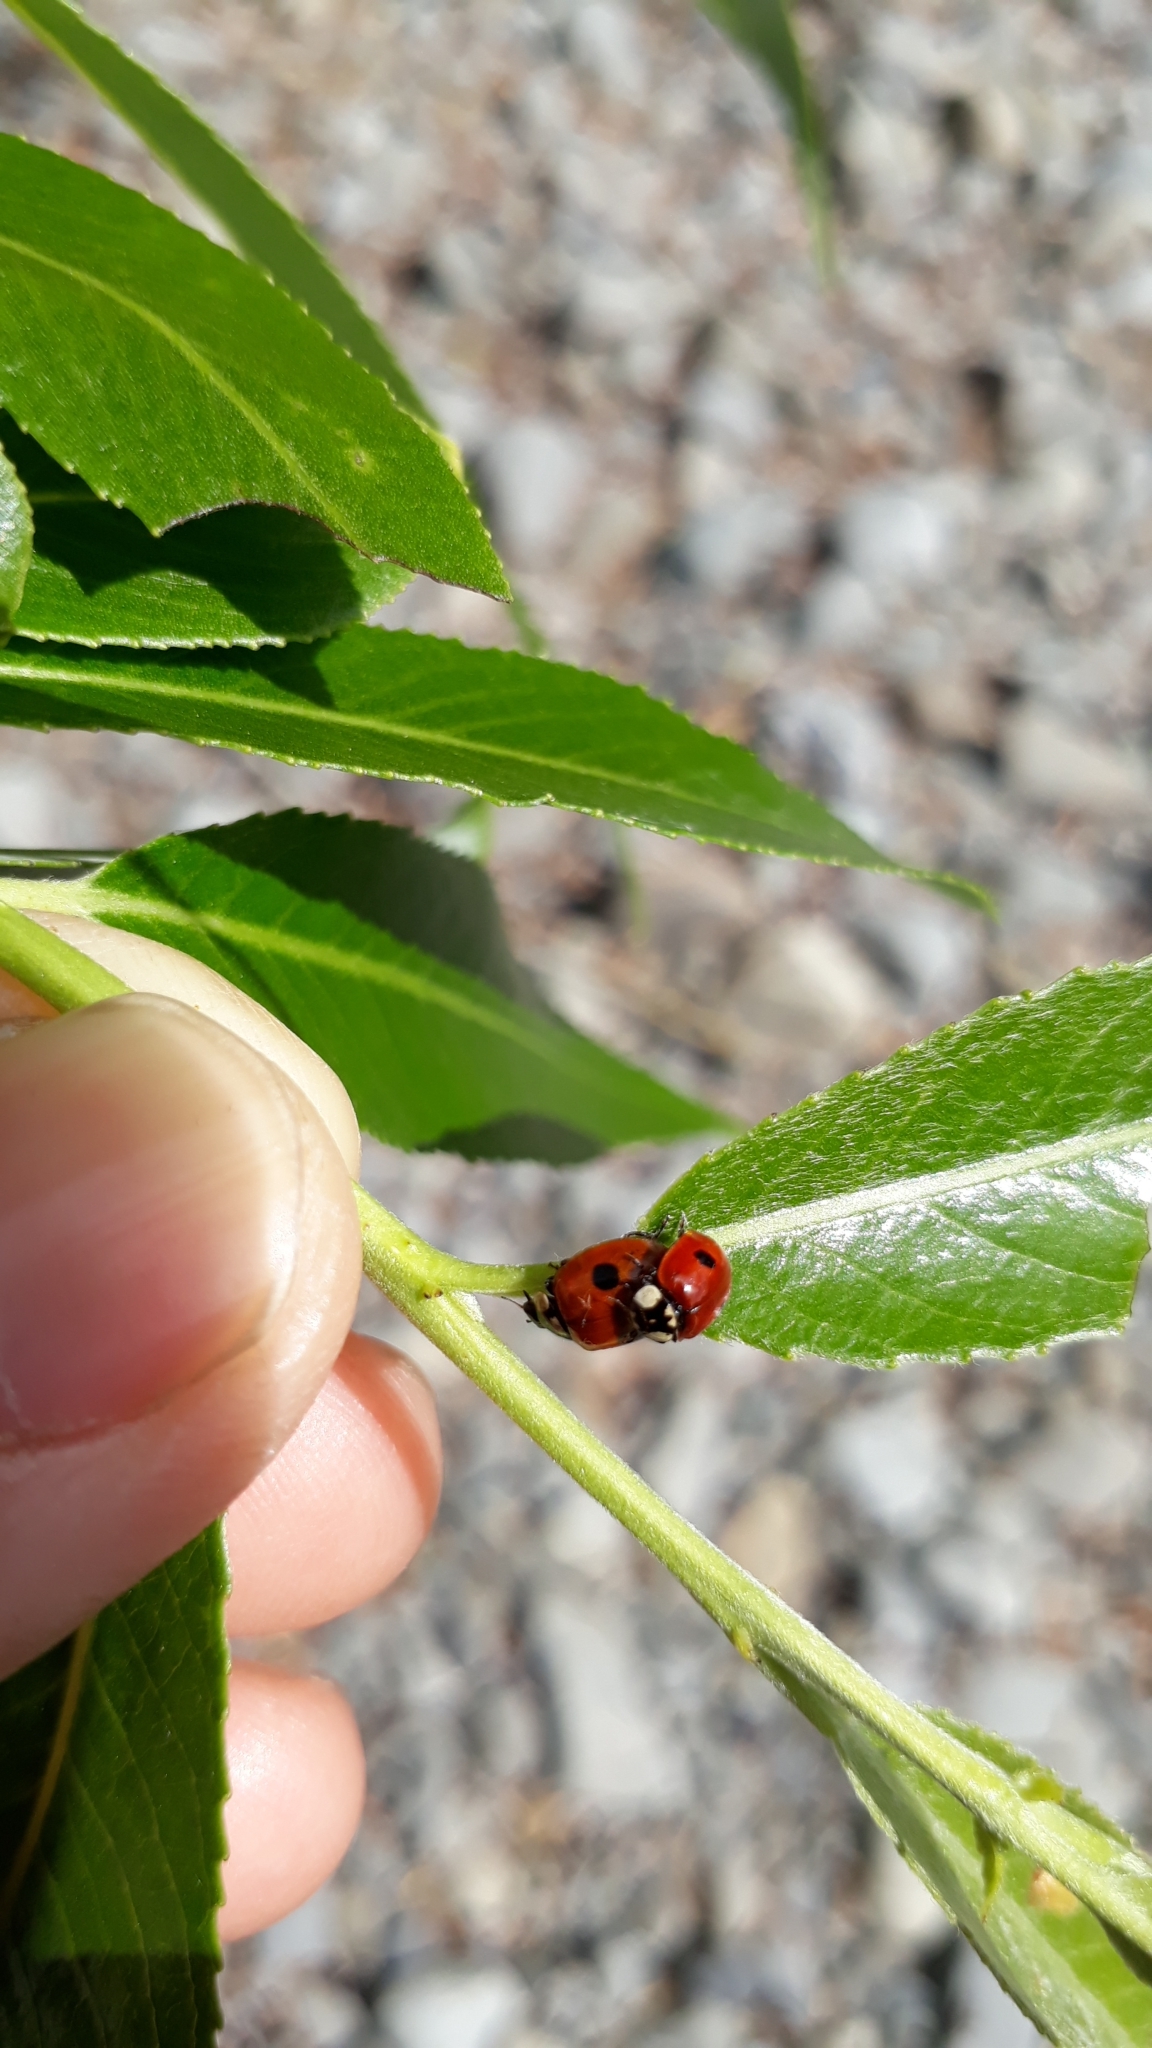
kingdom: Animalia
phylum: Arthropoda
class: Insecta
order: Coleoptera
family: Coccinellidae
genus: Adalia
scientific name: Adalia bipunctata
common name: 2-spot ladybird
